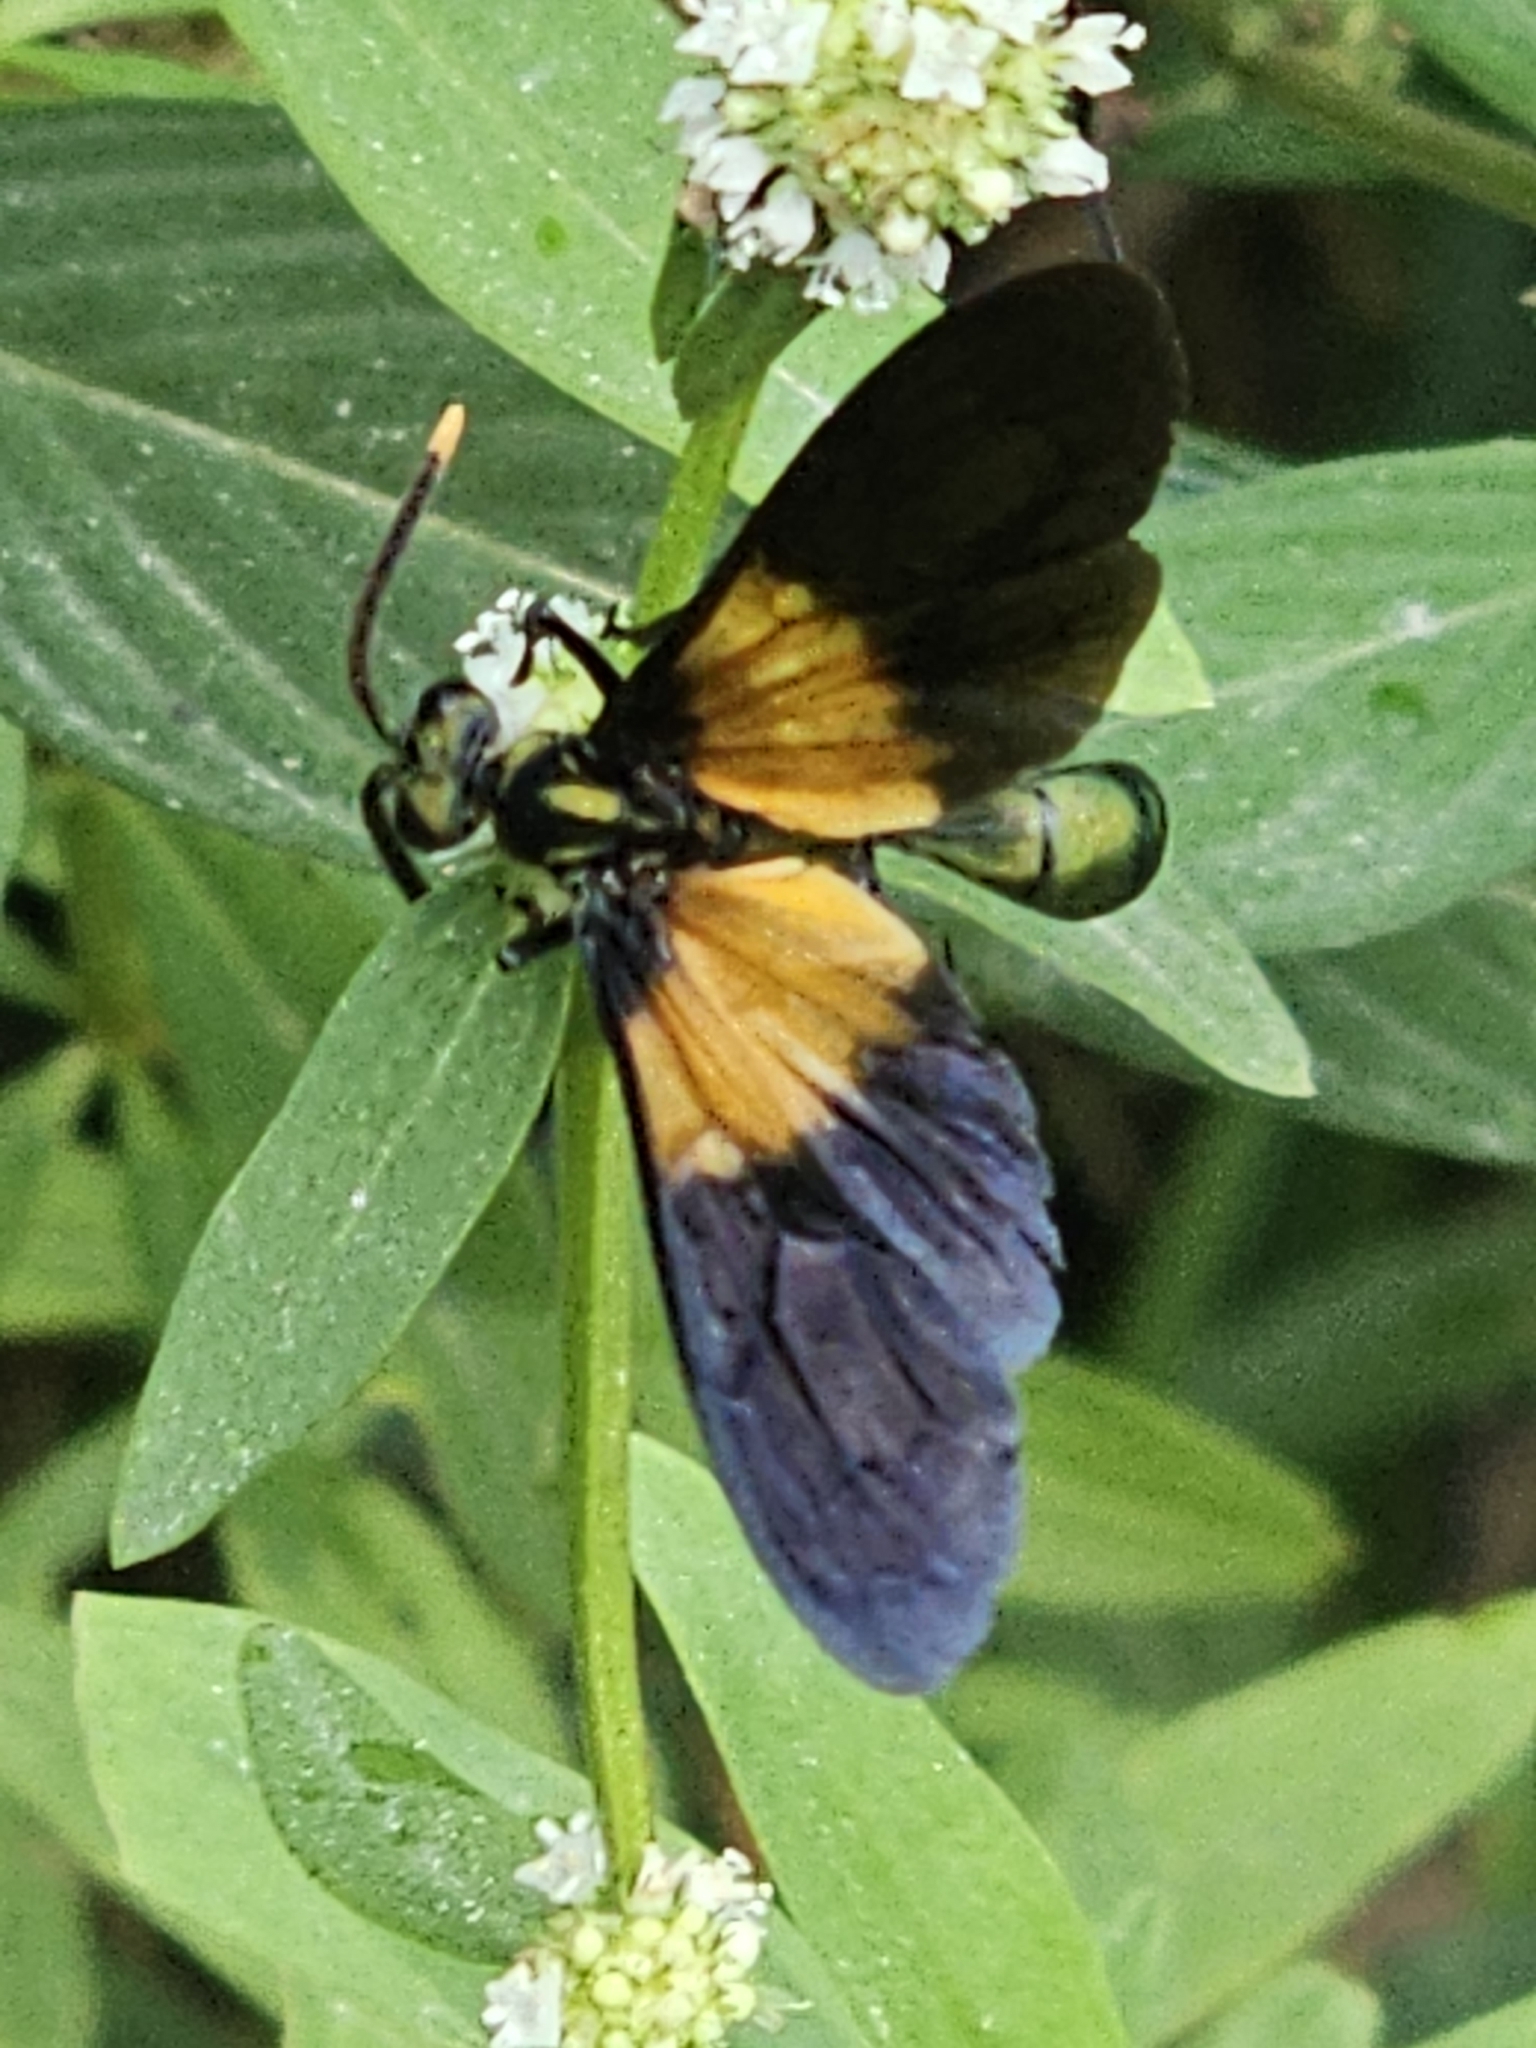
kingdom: Animalia
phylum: Arthropoda
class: Insecta
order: Hymenoptera
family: Pompilidae
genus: Pepsis
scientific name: Pepsis completa
